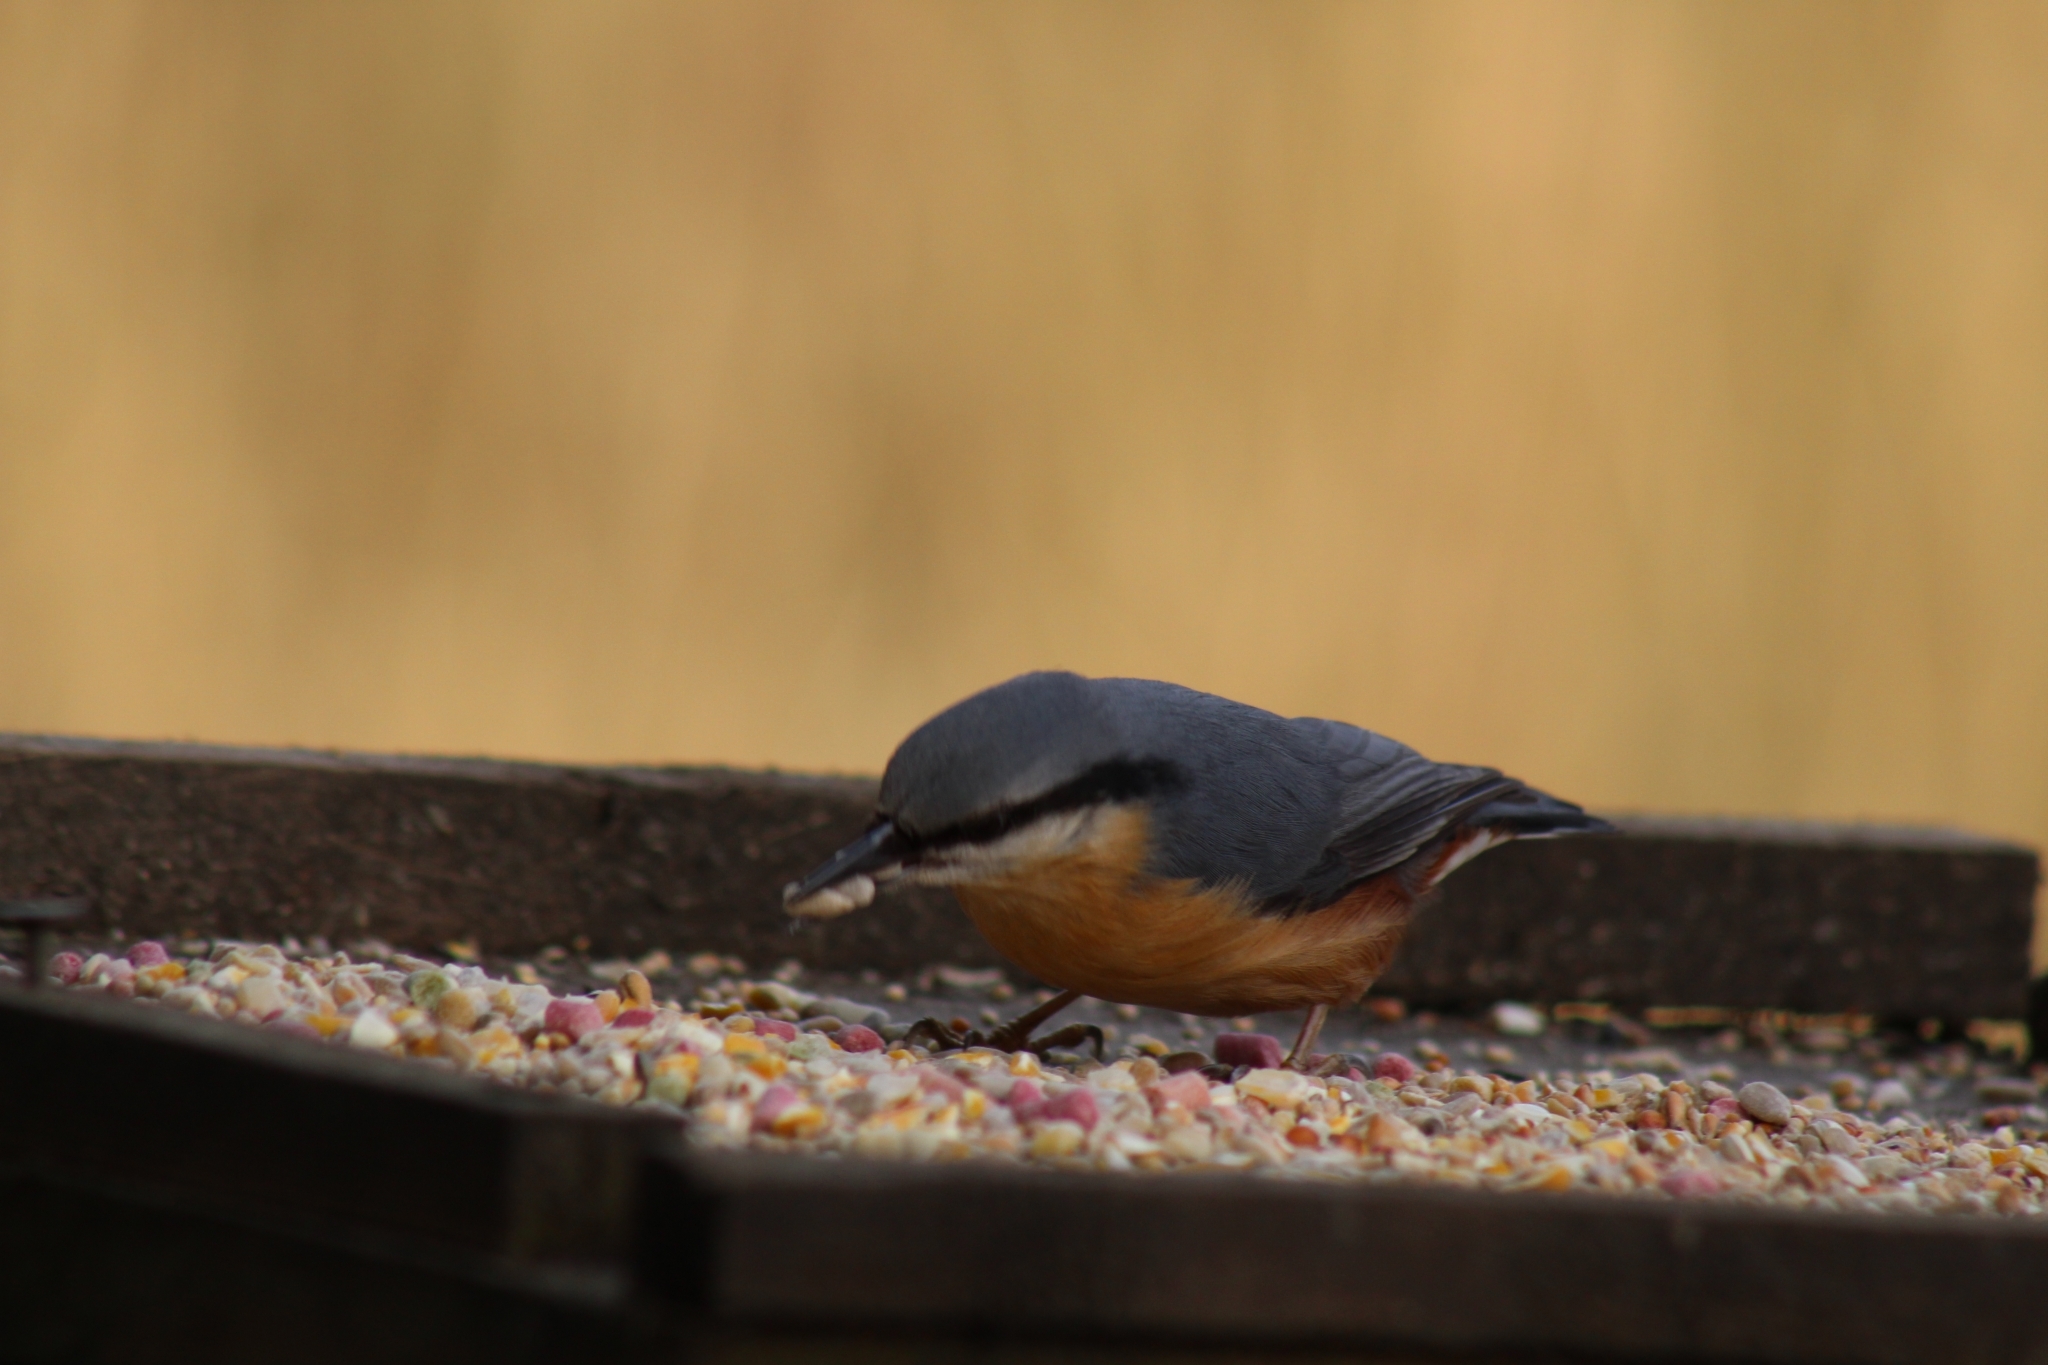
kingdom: Animalia
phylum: Chordata
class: Aves
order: Passeriformes
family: Sittidae
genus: Sitta
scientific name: Sitta europaea
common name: Eurasian nuthatch
